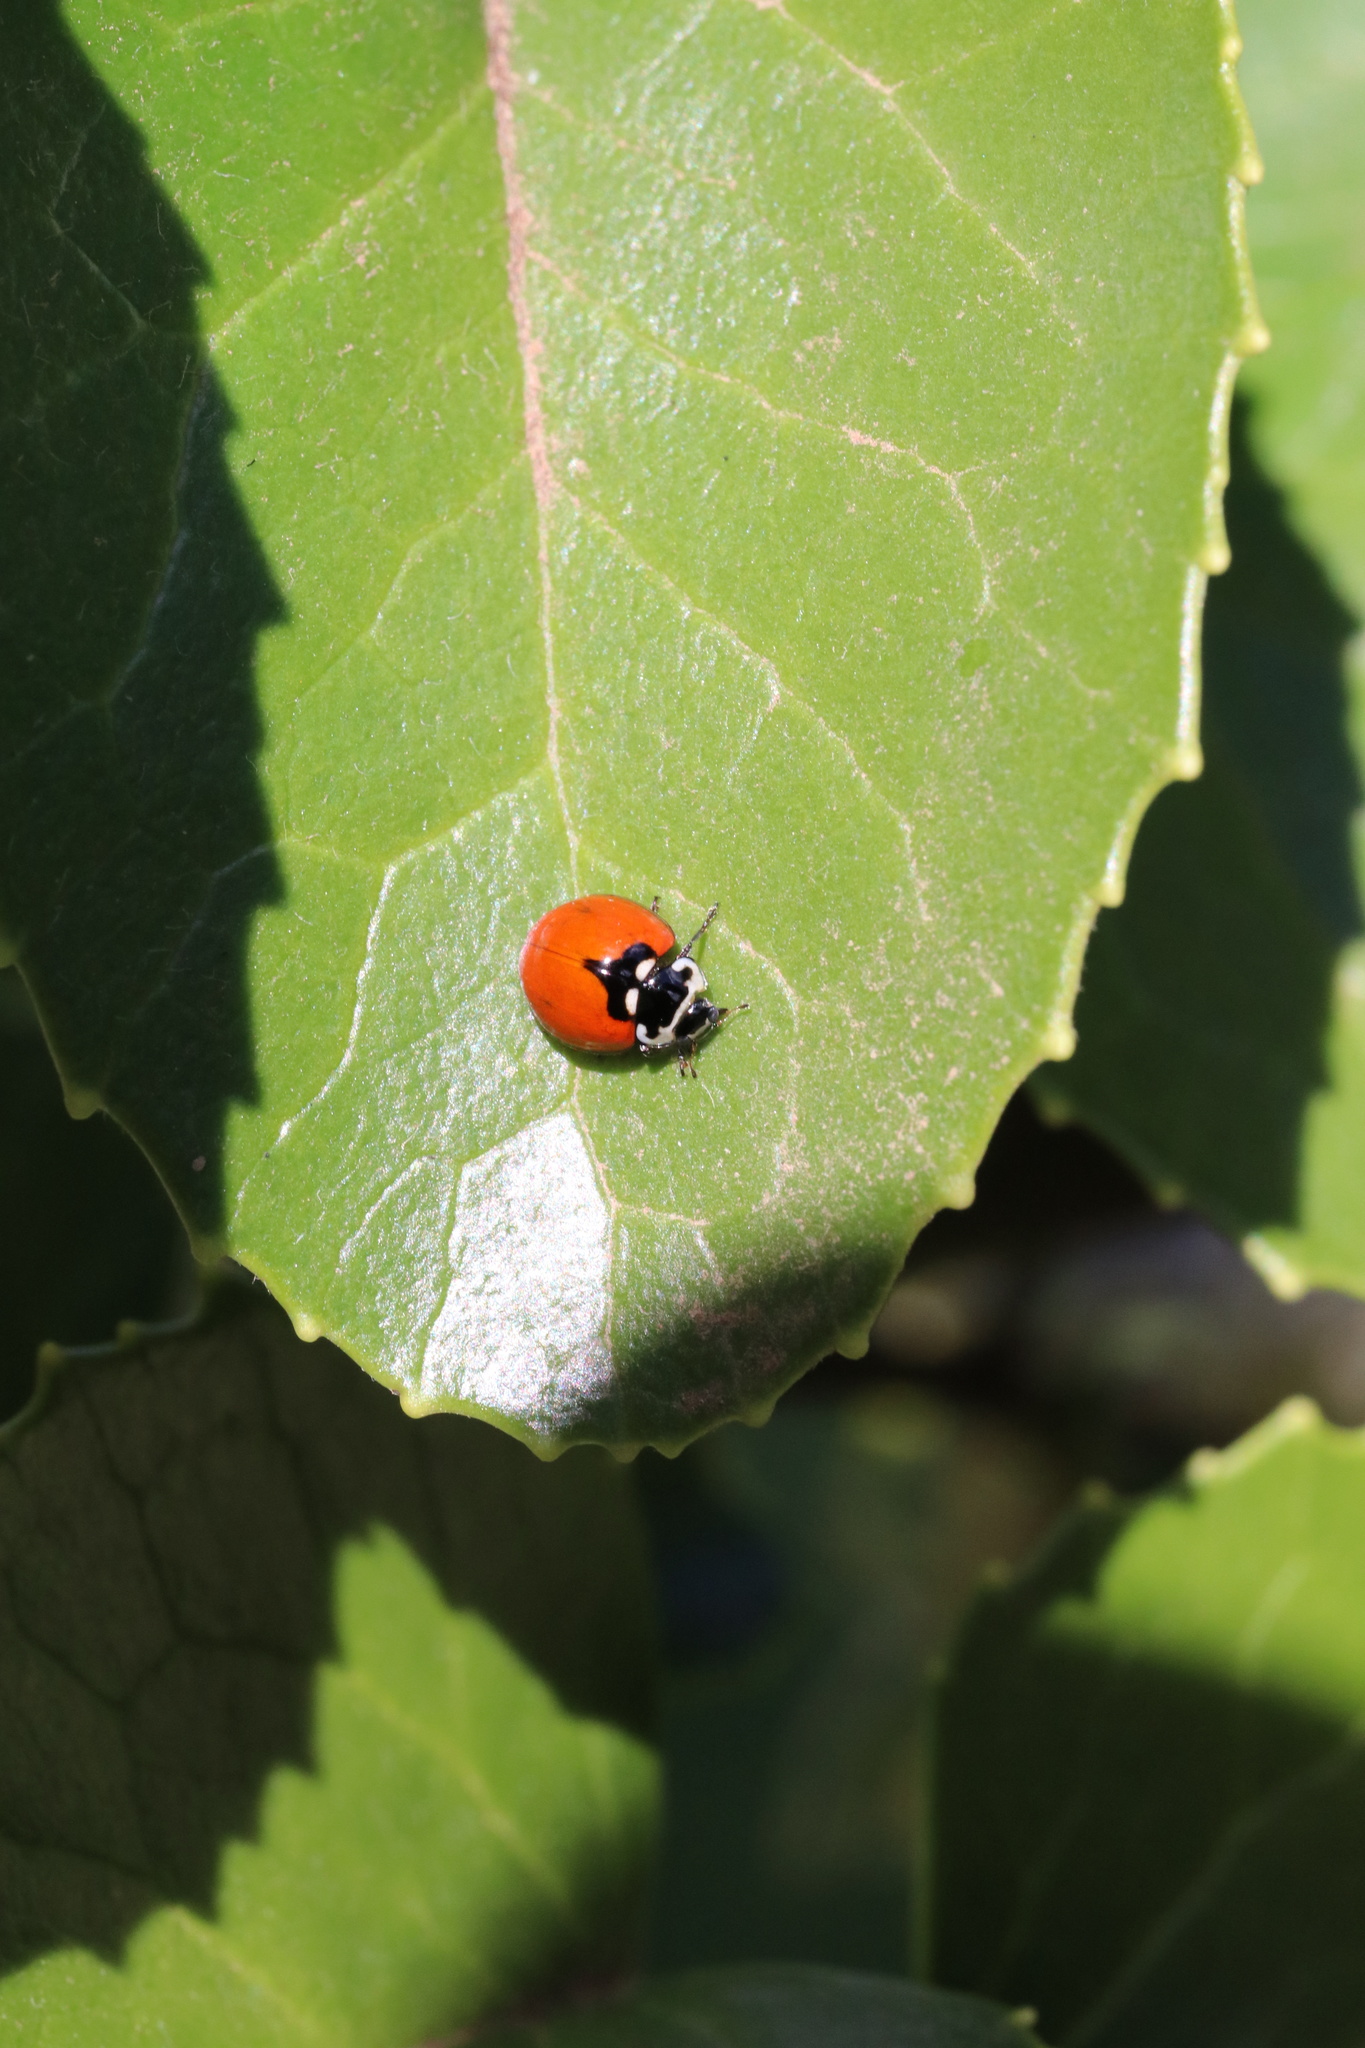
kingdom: Animalia
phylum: Arthropoda
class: Insecta
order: Coleoptera
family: Coccinellidae
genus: Adalia
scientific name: Adalia deficiens
